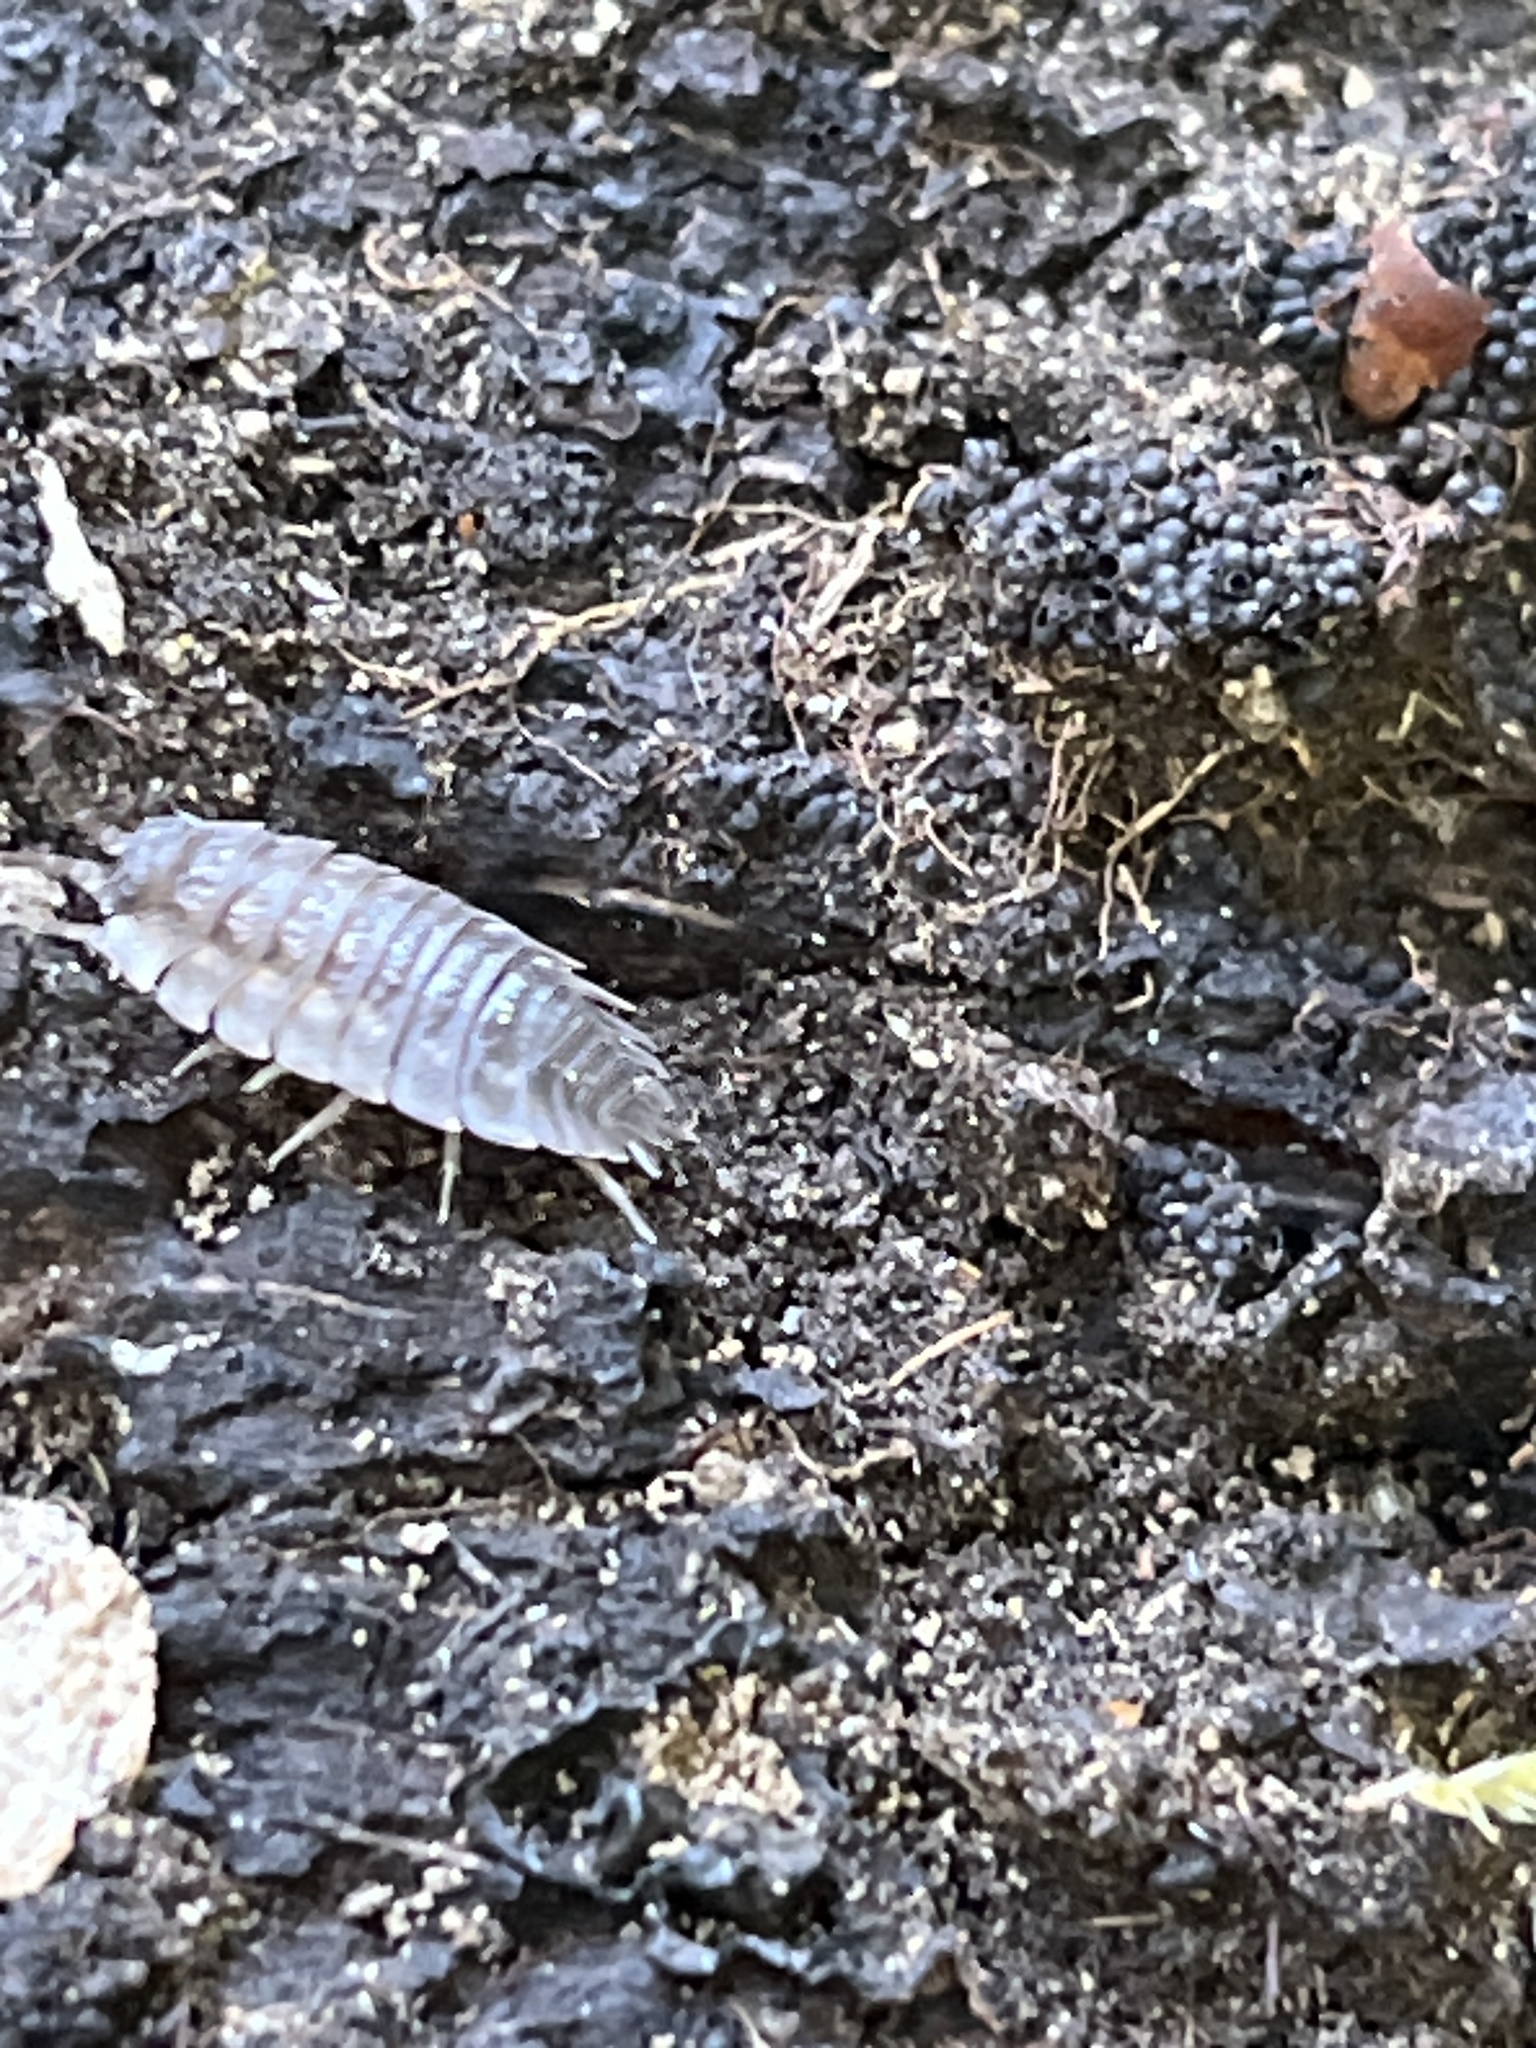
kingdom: Animalia
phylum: Arthropoda
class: Malacostraca
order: Isopoda
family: Oniscidae
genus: Oniscus
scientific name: Oniscus asellus
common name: Common shiny woodlouse
